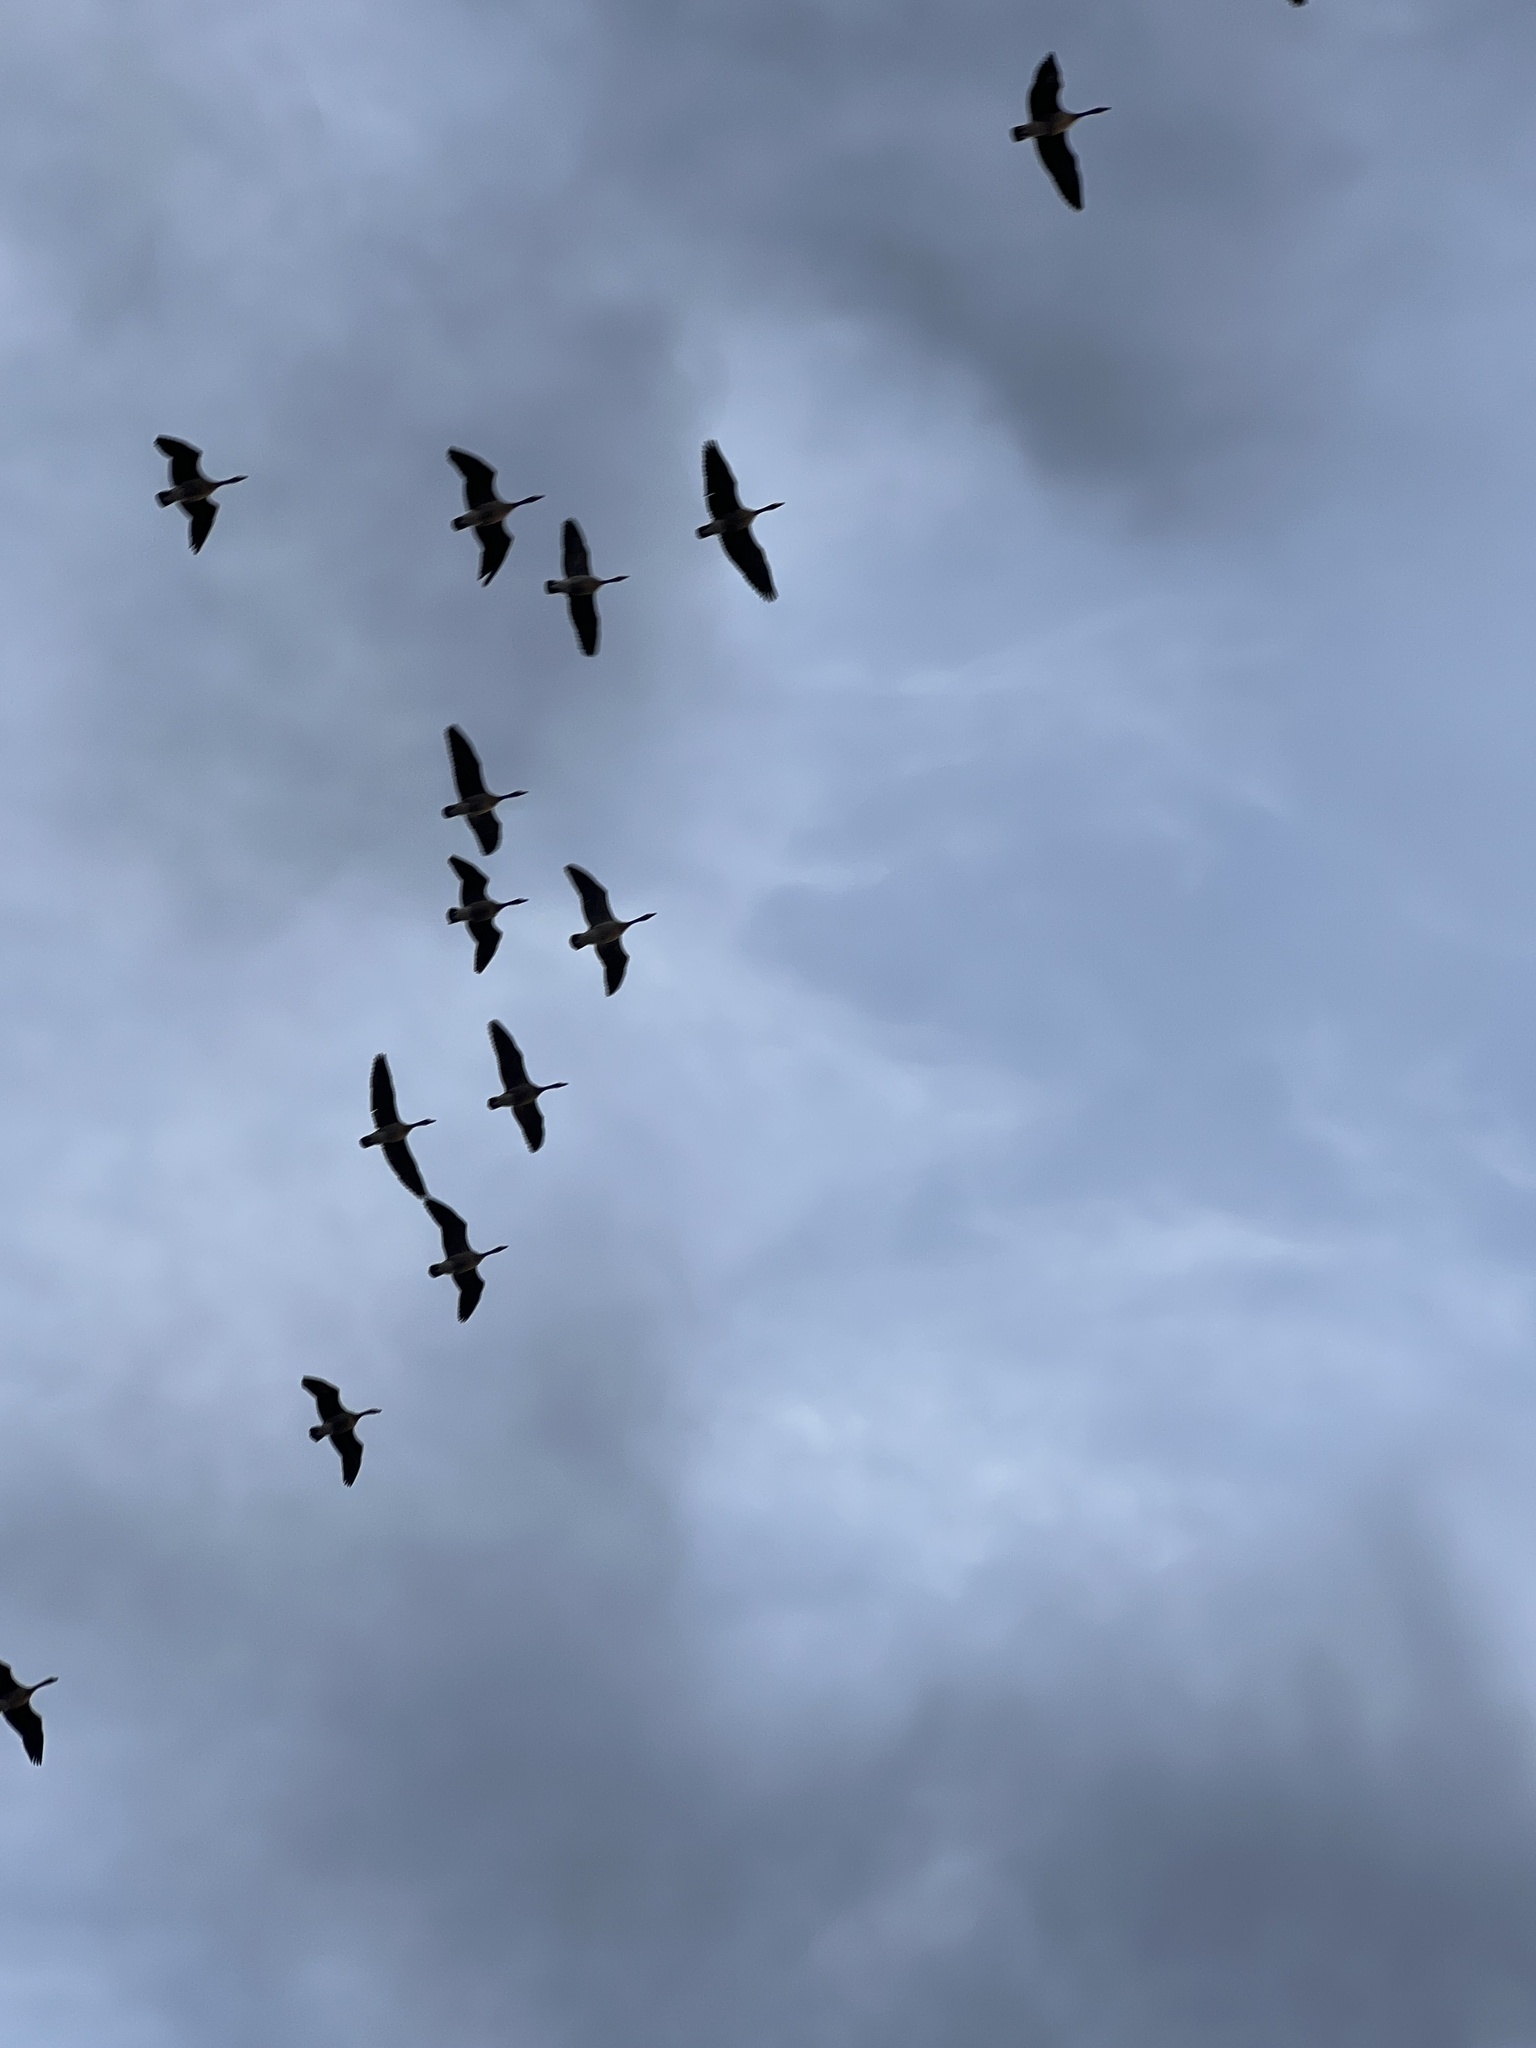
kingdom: Animalia
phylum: Chordata
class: Aves
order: Anseriformes
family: Anatidae
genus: Branta
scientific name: Branta canadensis
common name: Canada goose
